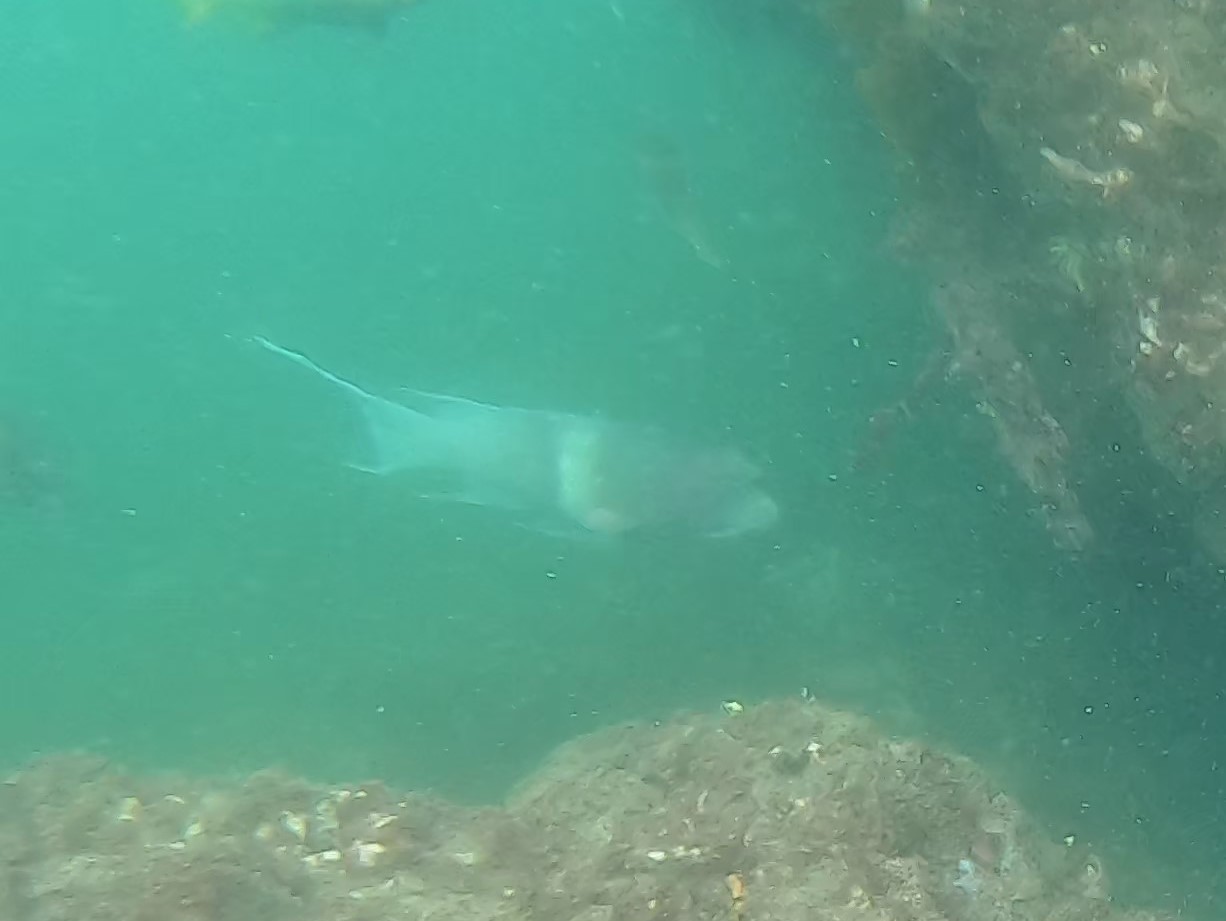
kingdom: Animalia
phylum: Chordata
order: Perciformes
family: Labridae
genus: Bodianus
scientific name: Bodianus diplotaenia
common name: Mexican hogfish
